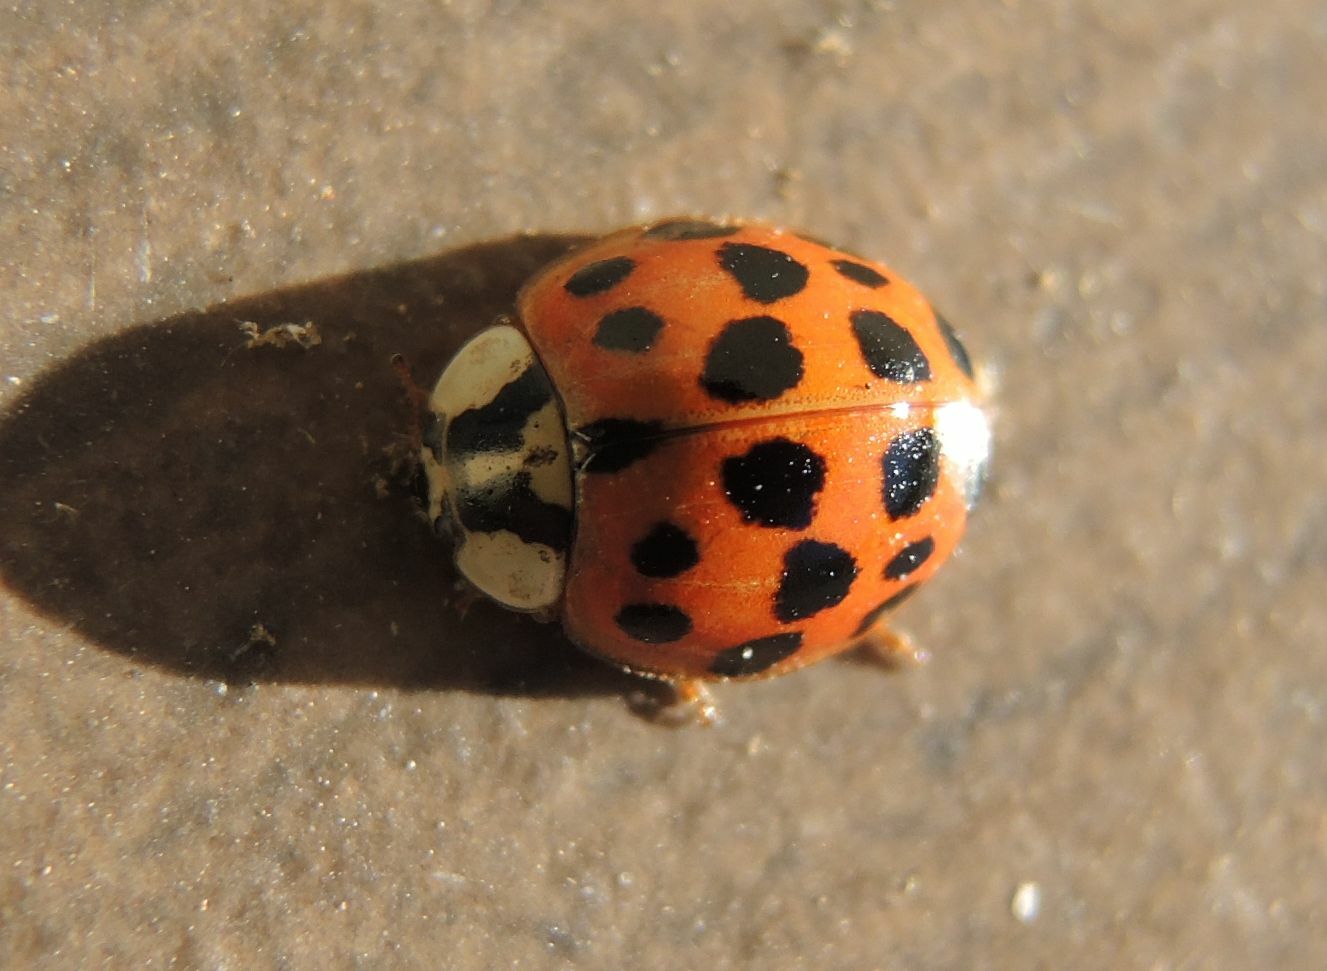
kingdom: Animalia
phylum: Arthropoda
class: Insecta
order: Coleoptera
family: Coccinellidae
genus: Harmonia
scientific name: Harmonia axyridis
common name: Harlequin ladybird
